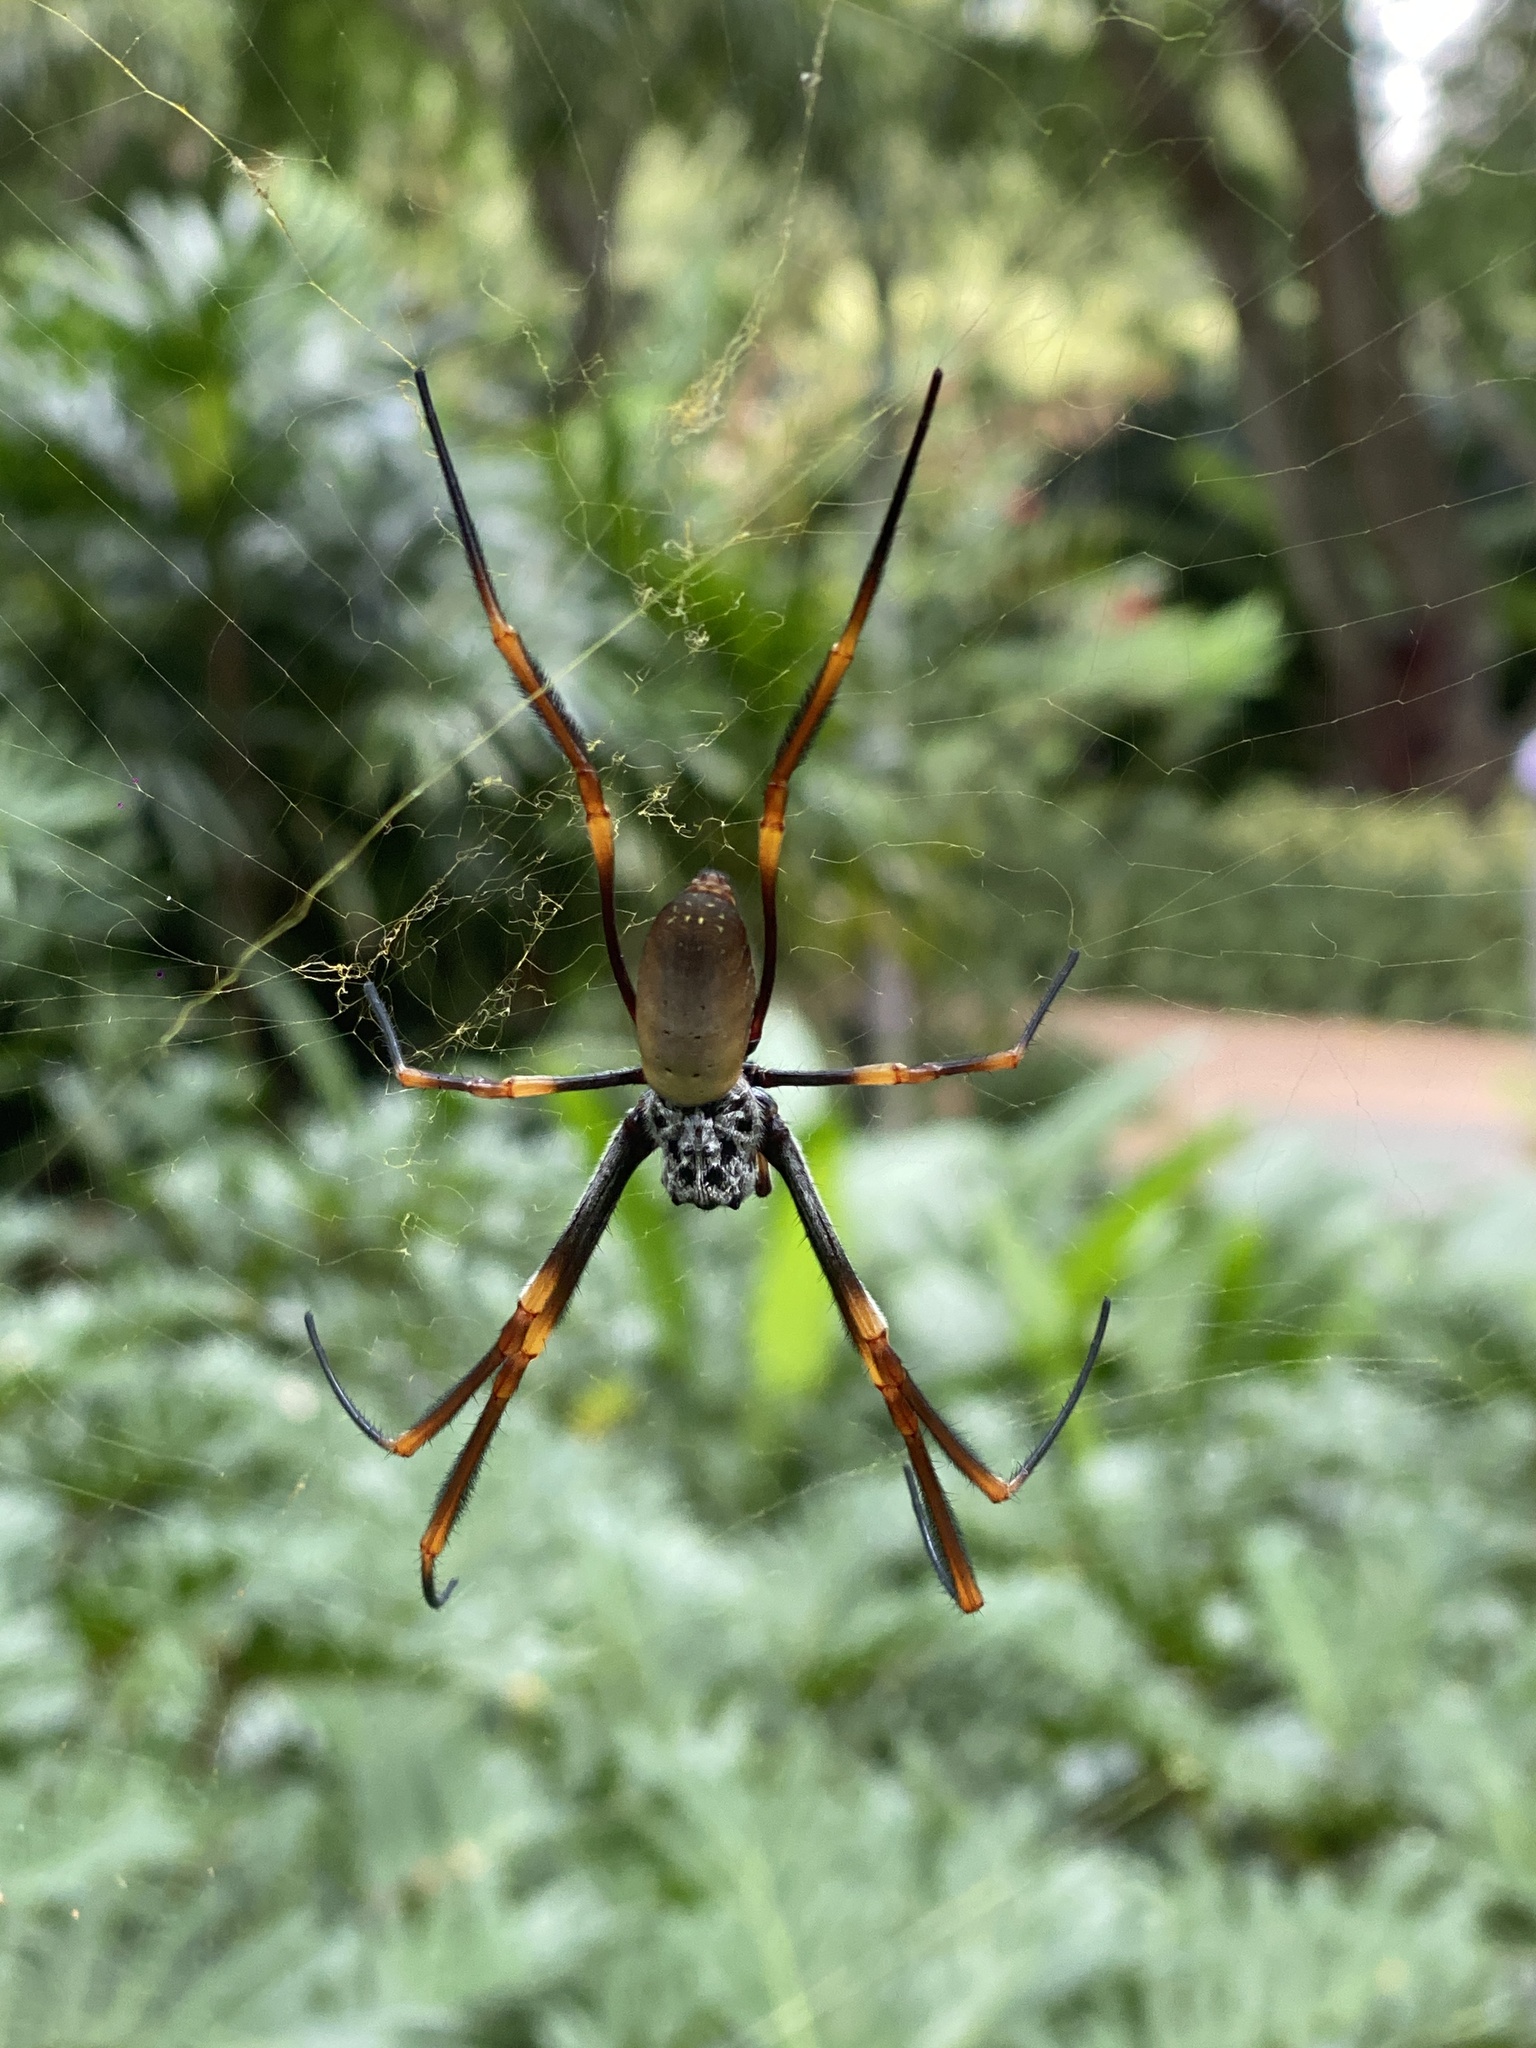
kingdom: Animalia
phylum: Arthropoda
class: Arachnida
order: Araneae
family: Araneidae
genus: Trichonephila
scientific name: Trichonephila plumipes
